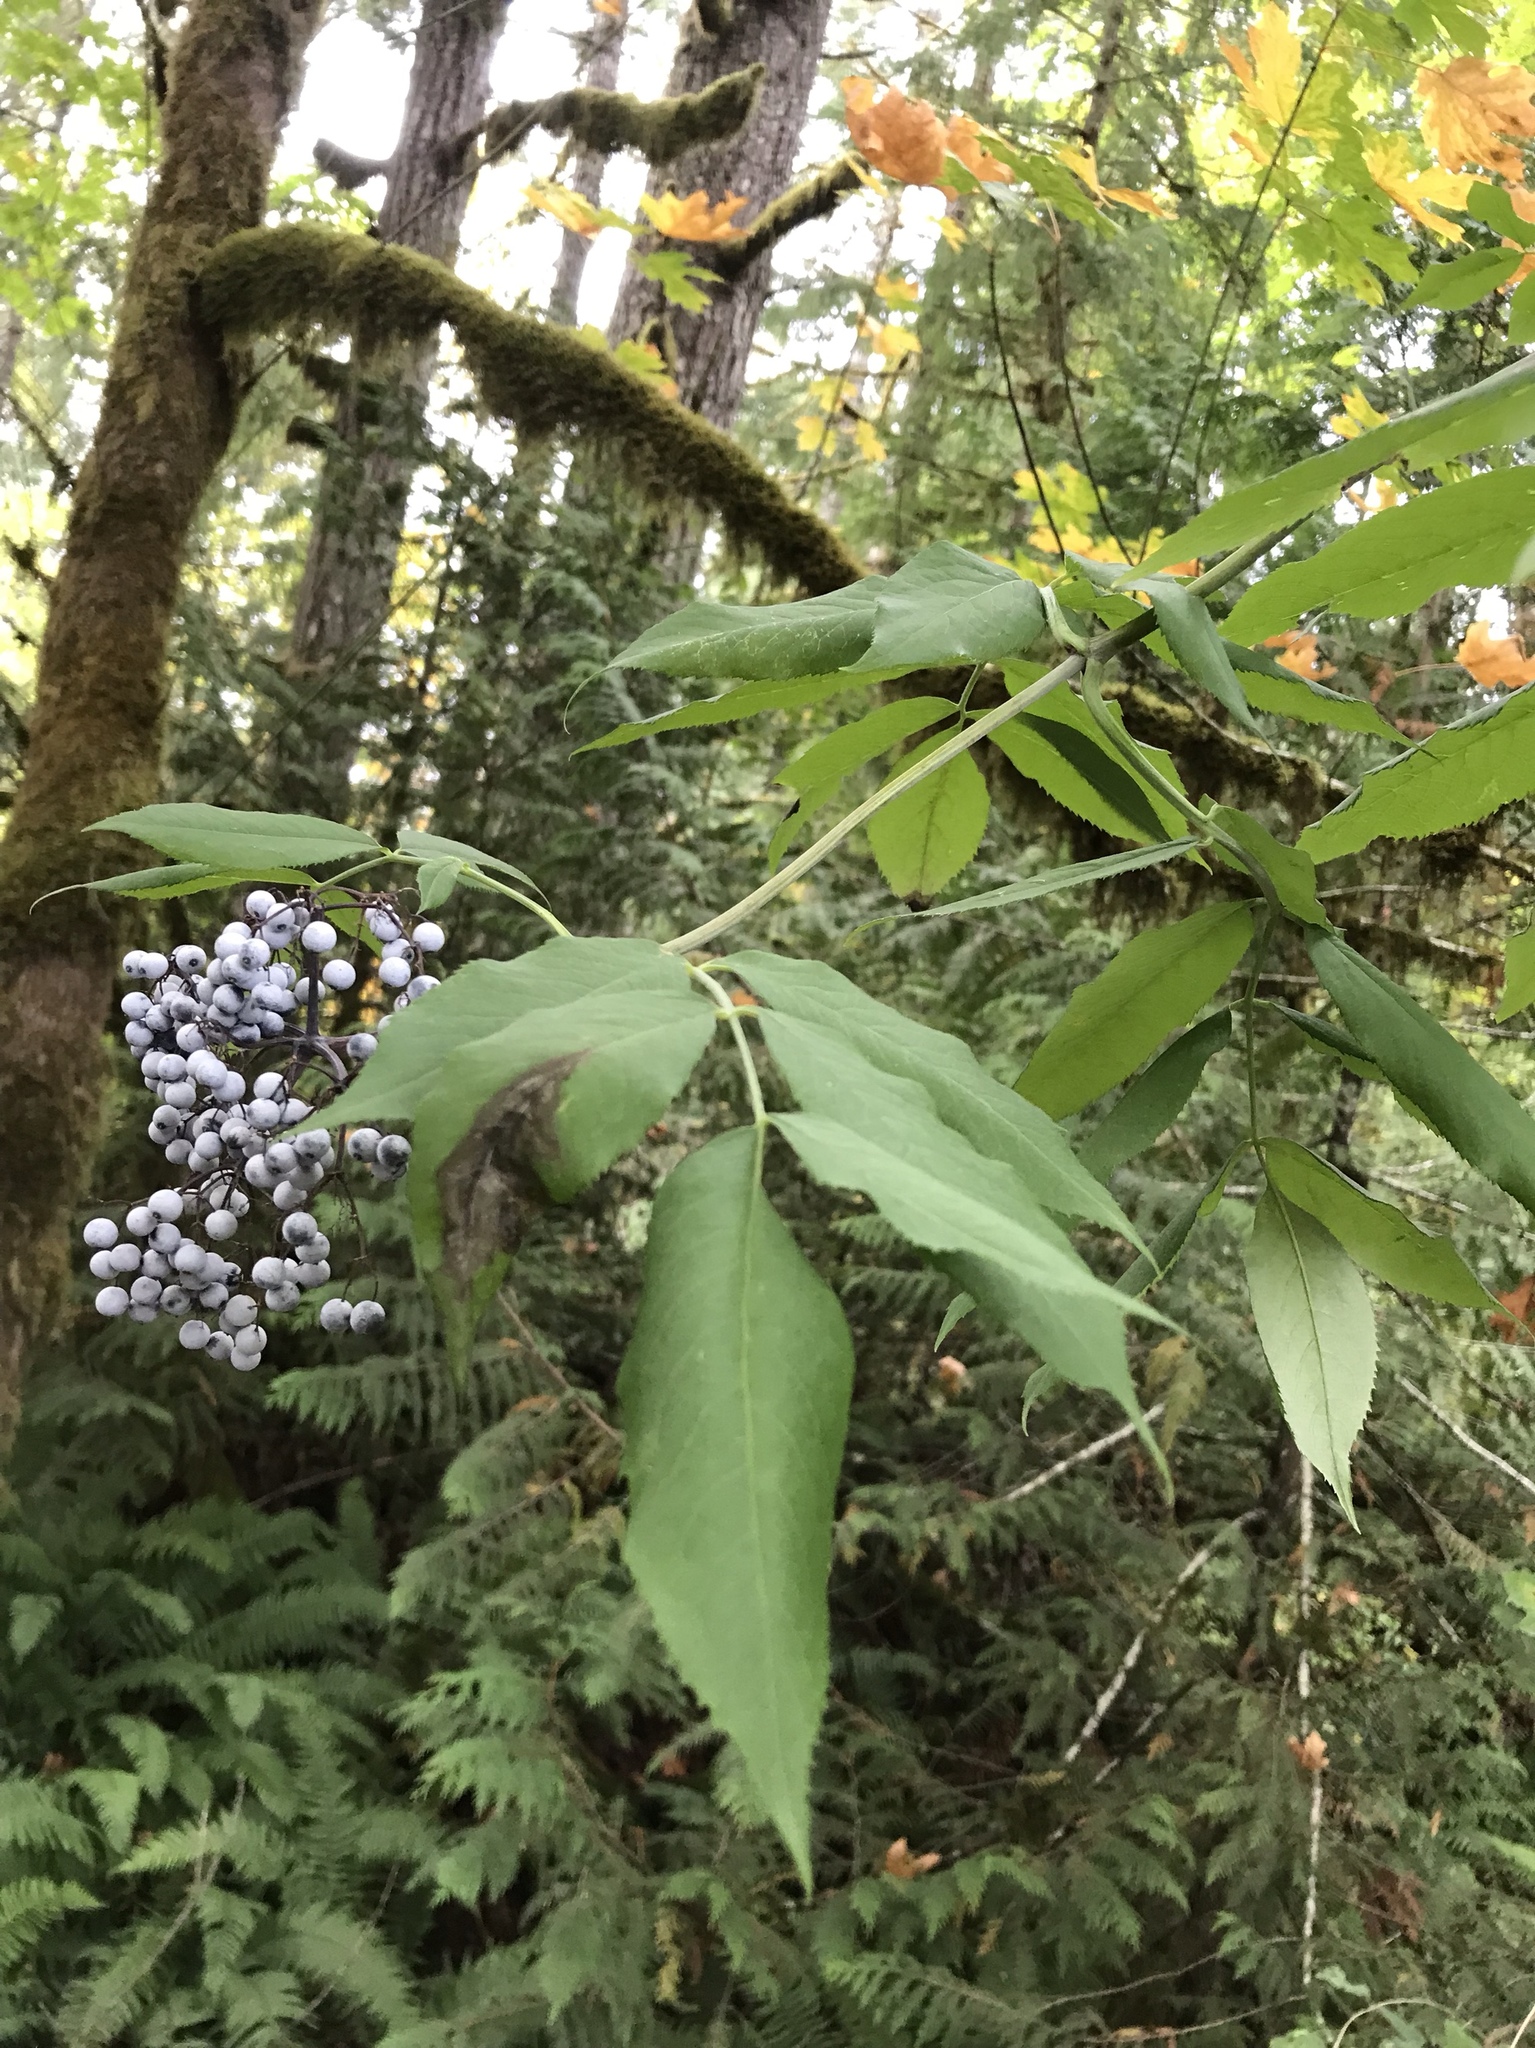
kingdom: Plantae
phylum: Tracheophyta
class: Magnoliopsida
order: Dipsacales
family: Viburnaceae
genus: Sambucus
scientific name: Sambucus cerulea
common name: Blue elder
